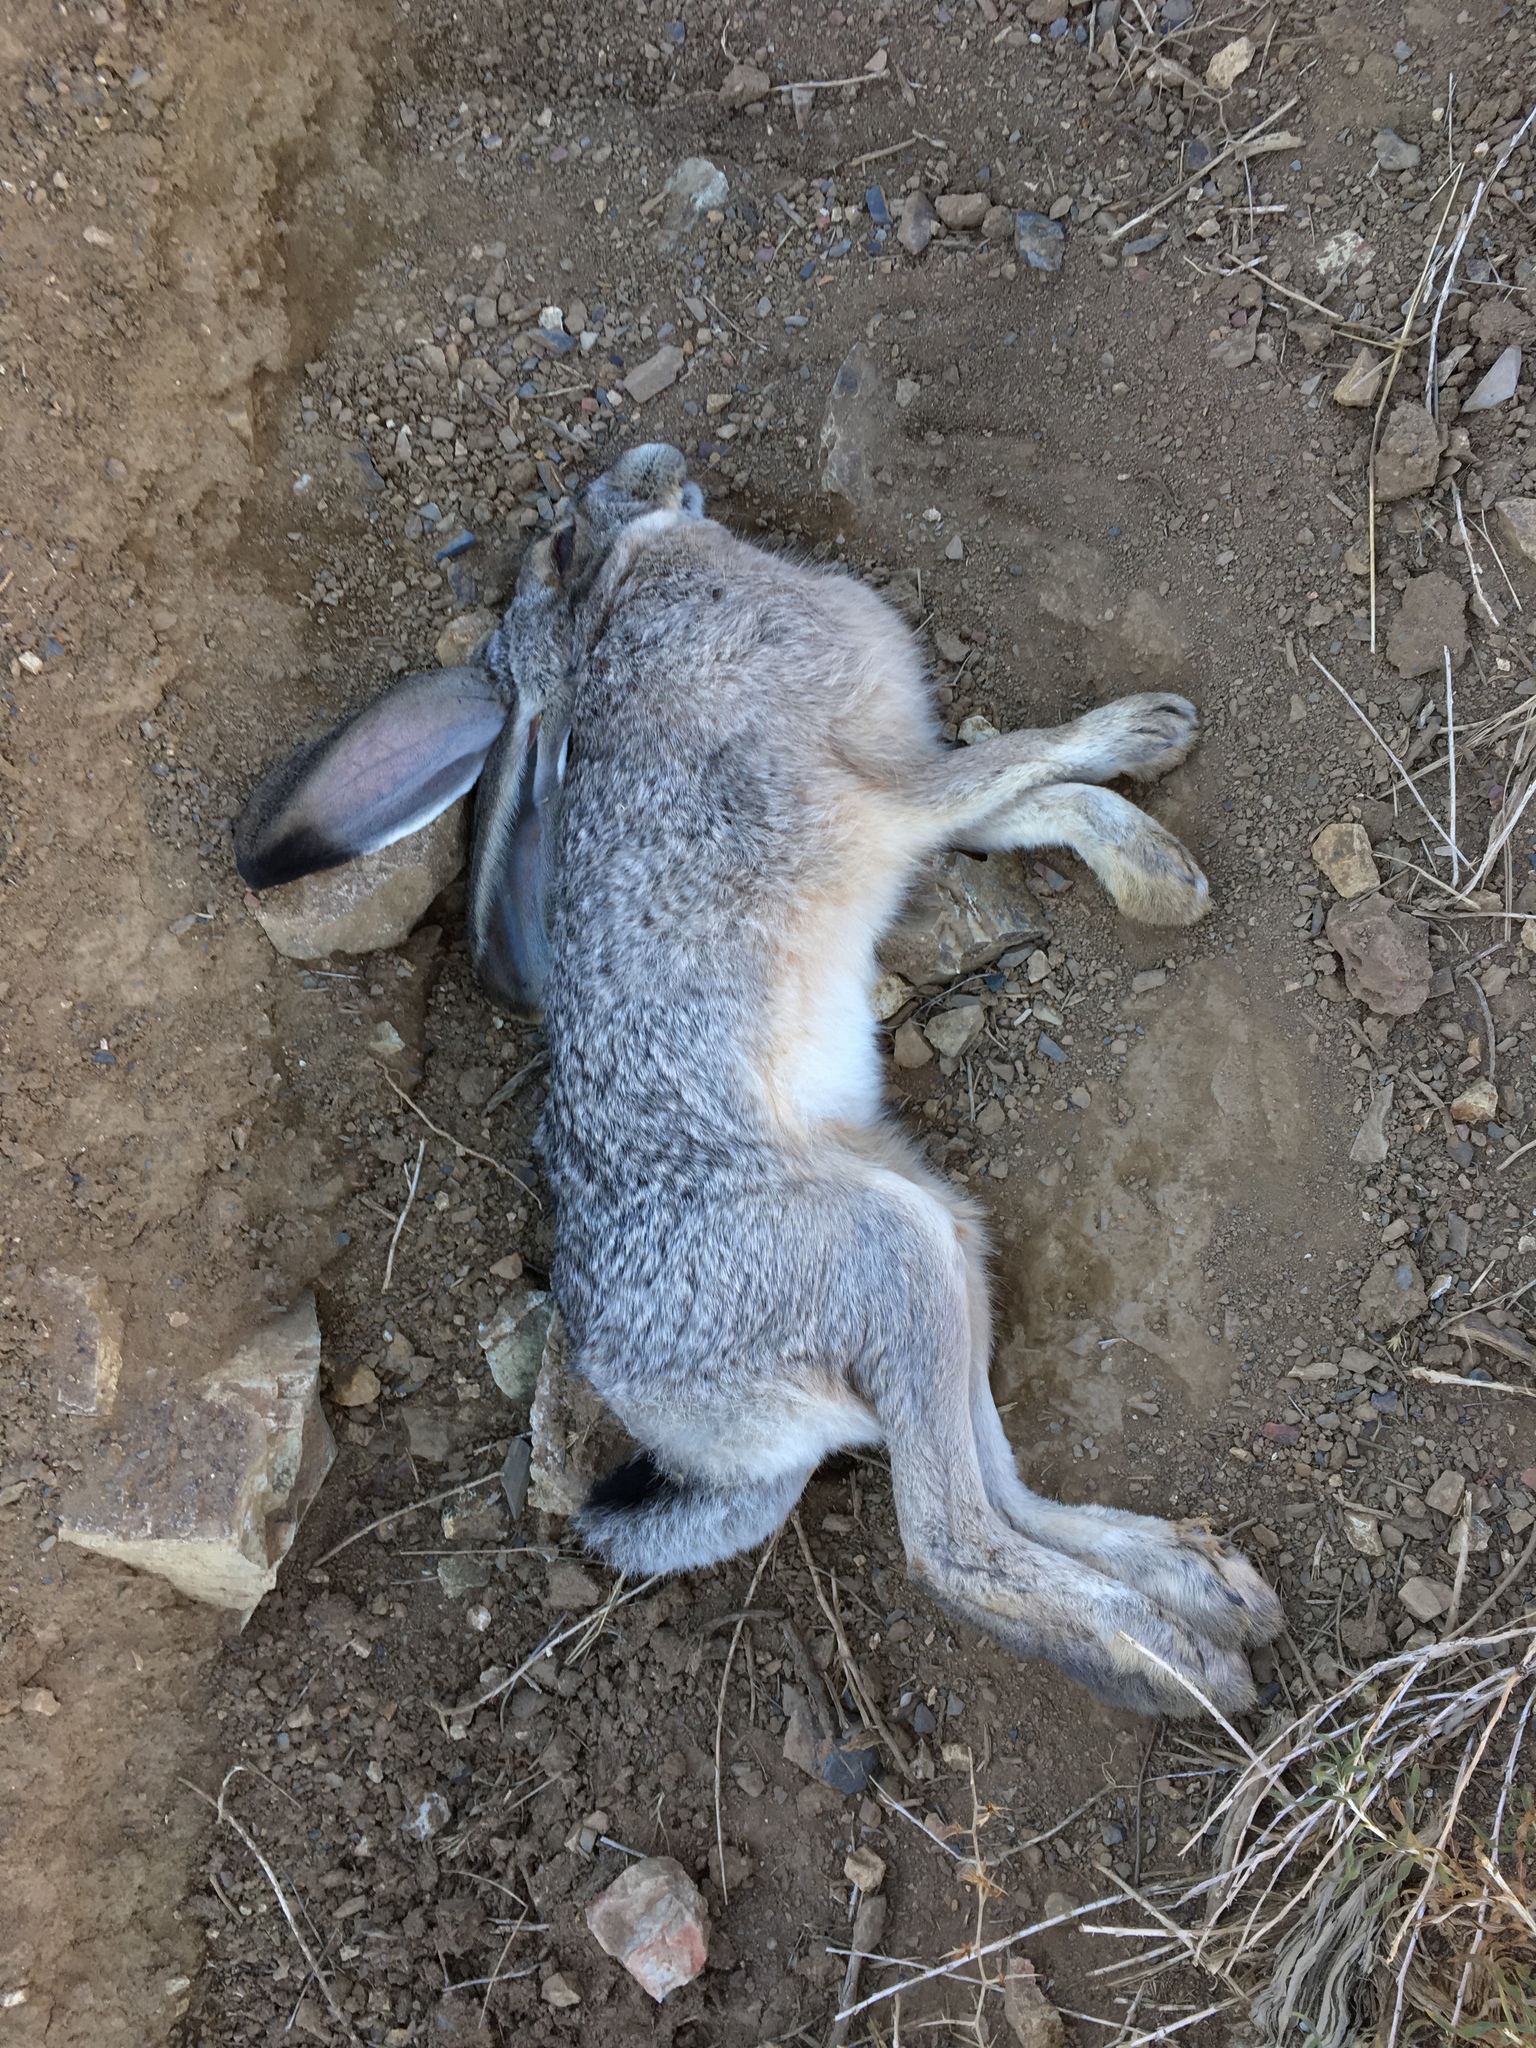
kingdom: Animalia
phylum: Chordata
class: Mammalia
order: Lagomorpha
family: Leporidae
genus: Lepus
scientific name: Lepus californicus
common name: Black-tailed jackrabbit
